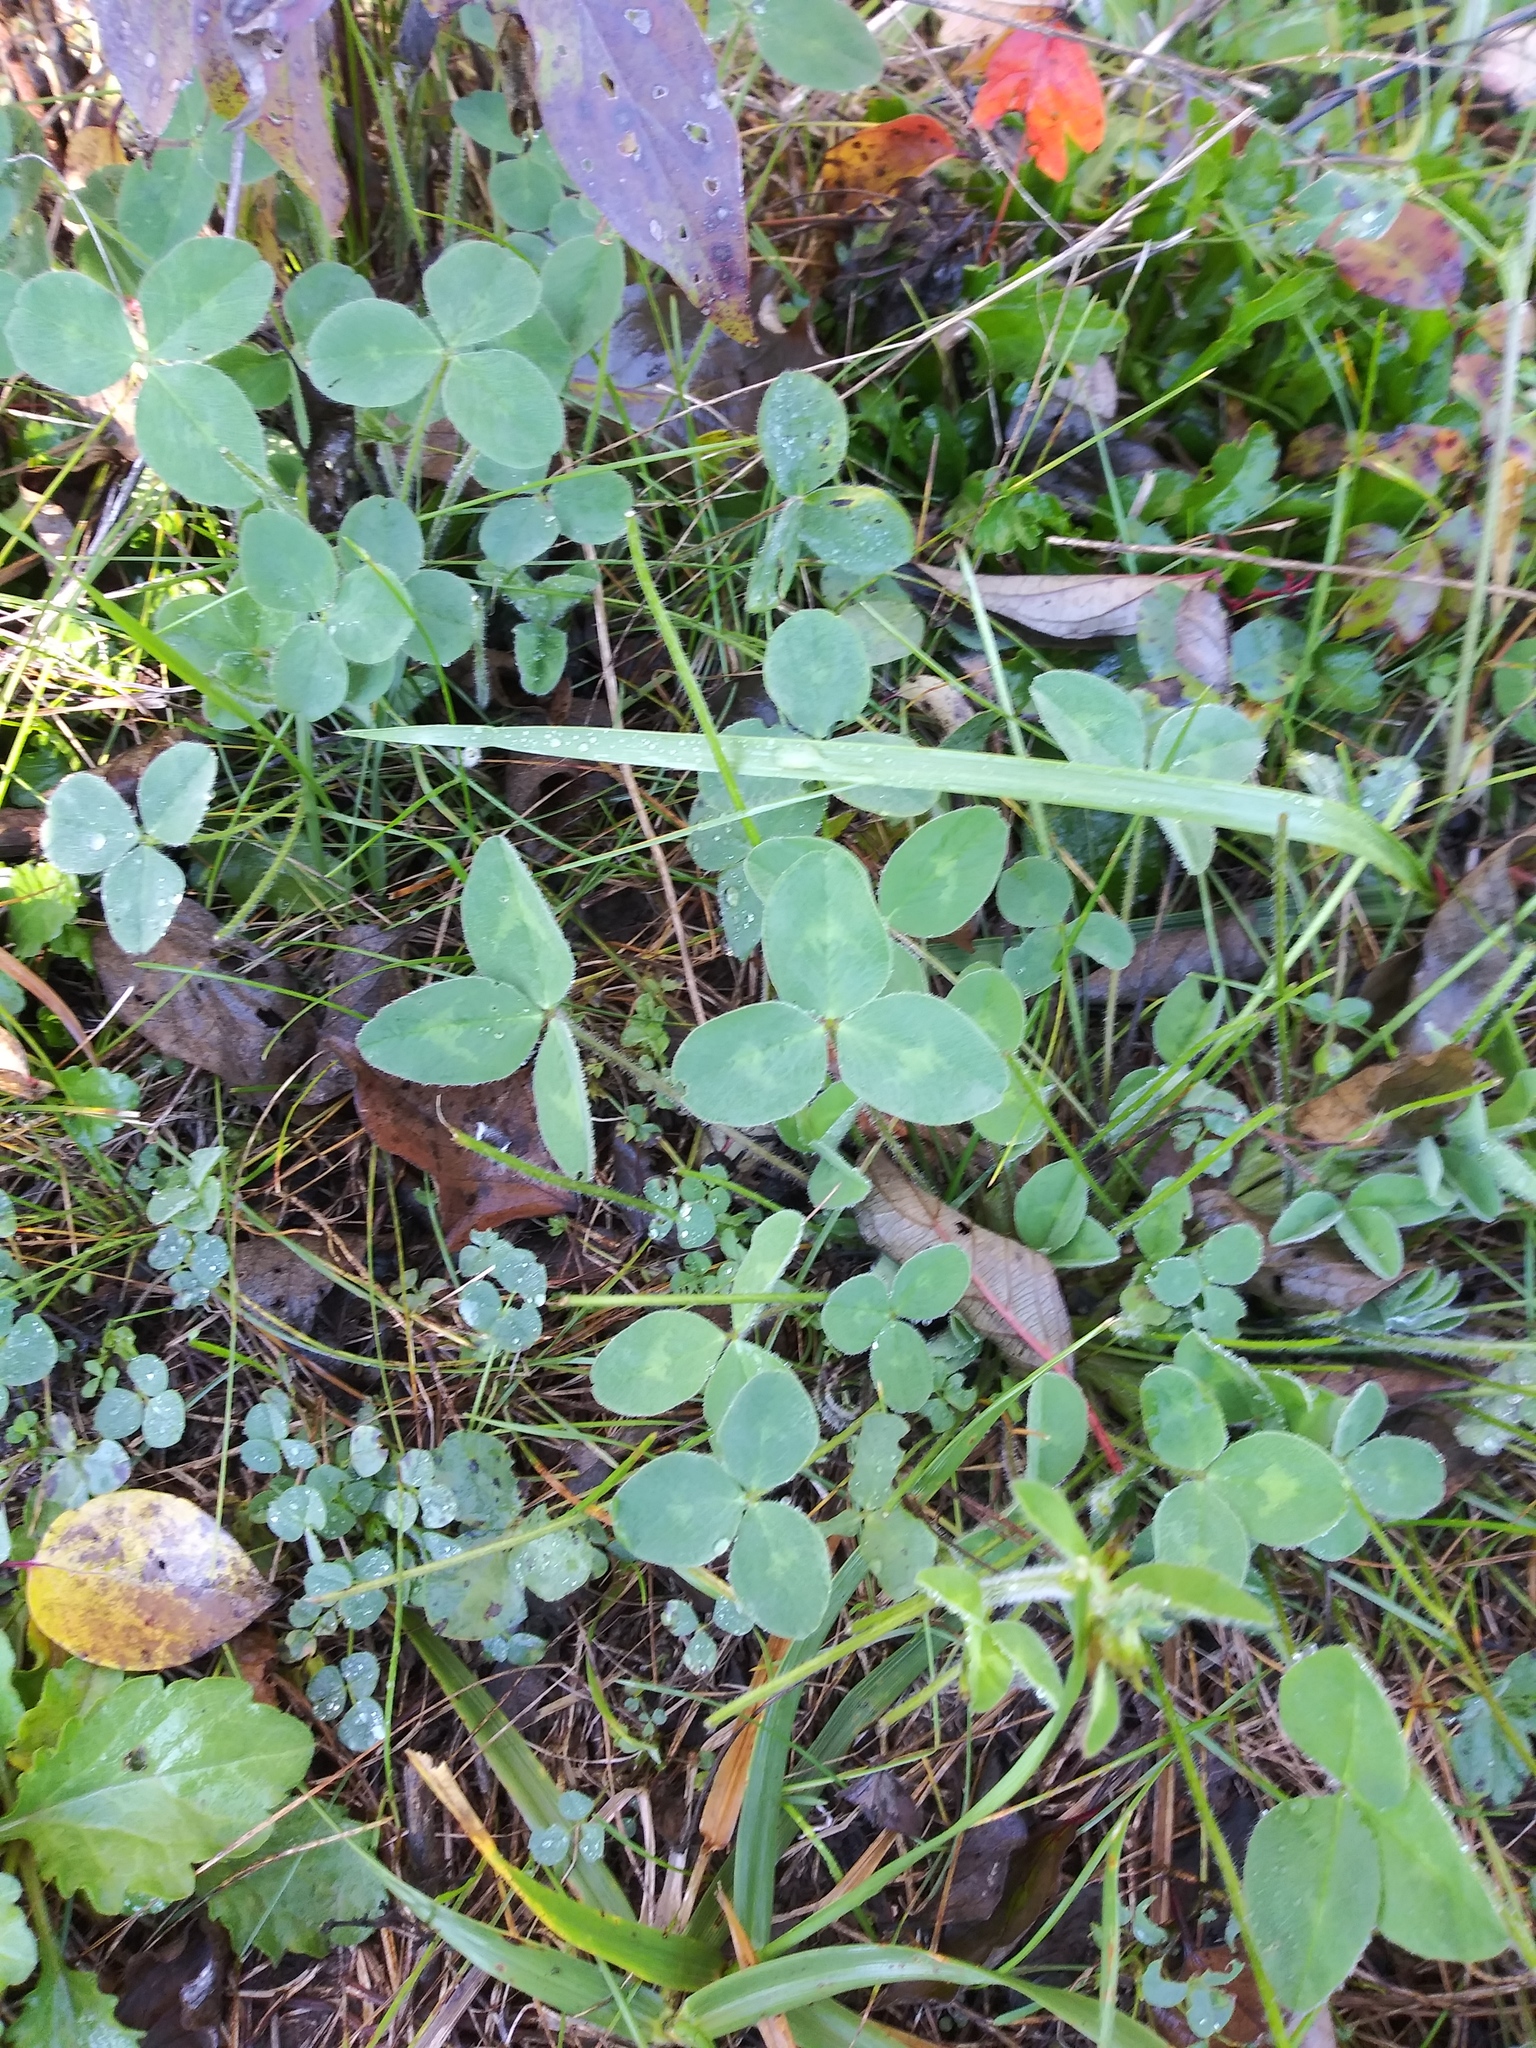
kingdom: Plantae
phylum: Tracheophyta
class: Magnoliopsida
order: Fabales
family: Fabaceae
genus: Trifolium
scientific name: Trifolium pratense
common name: Red clover
